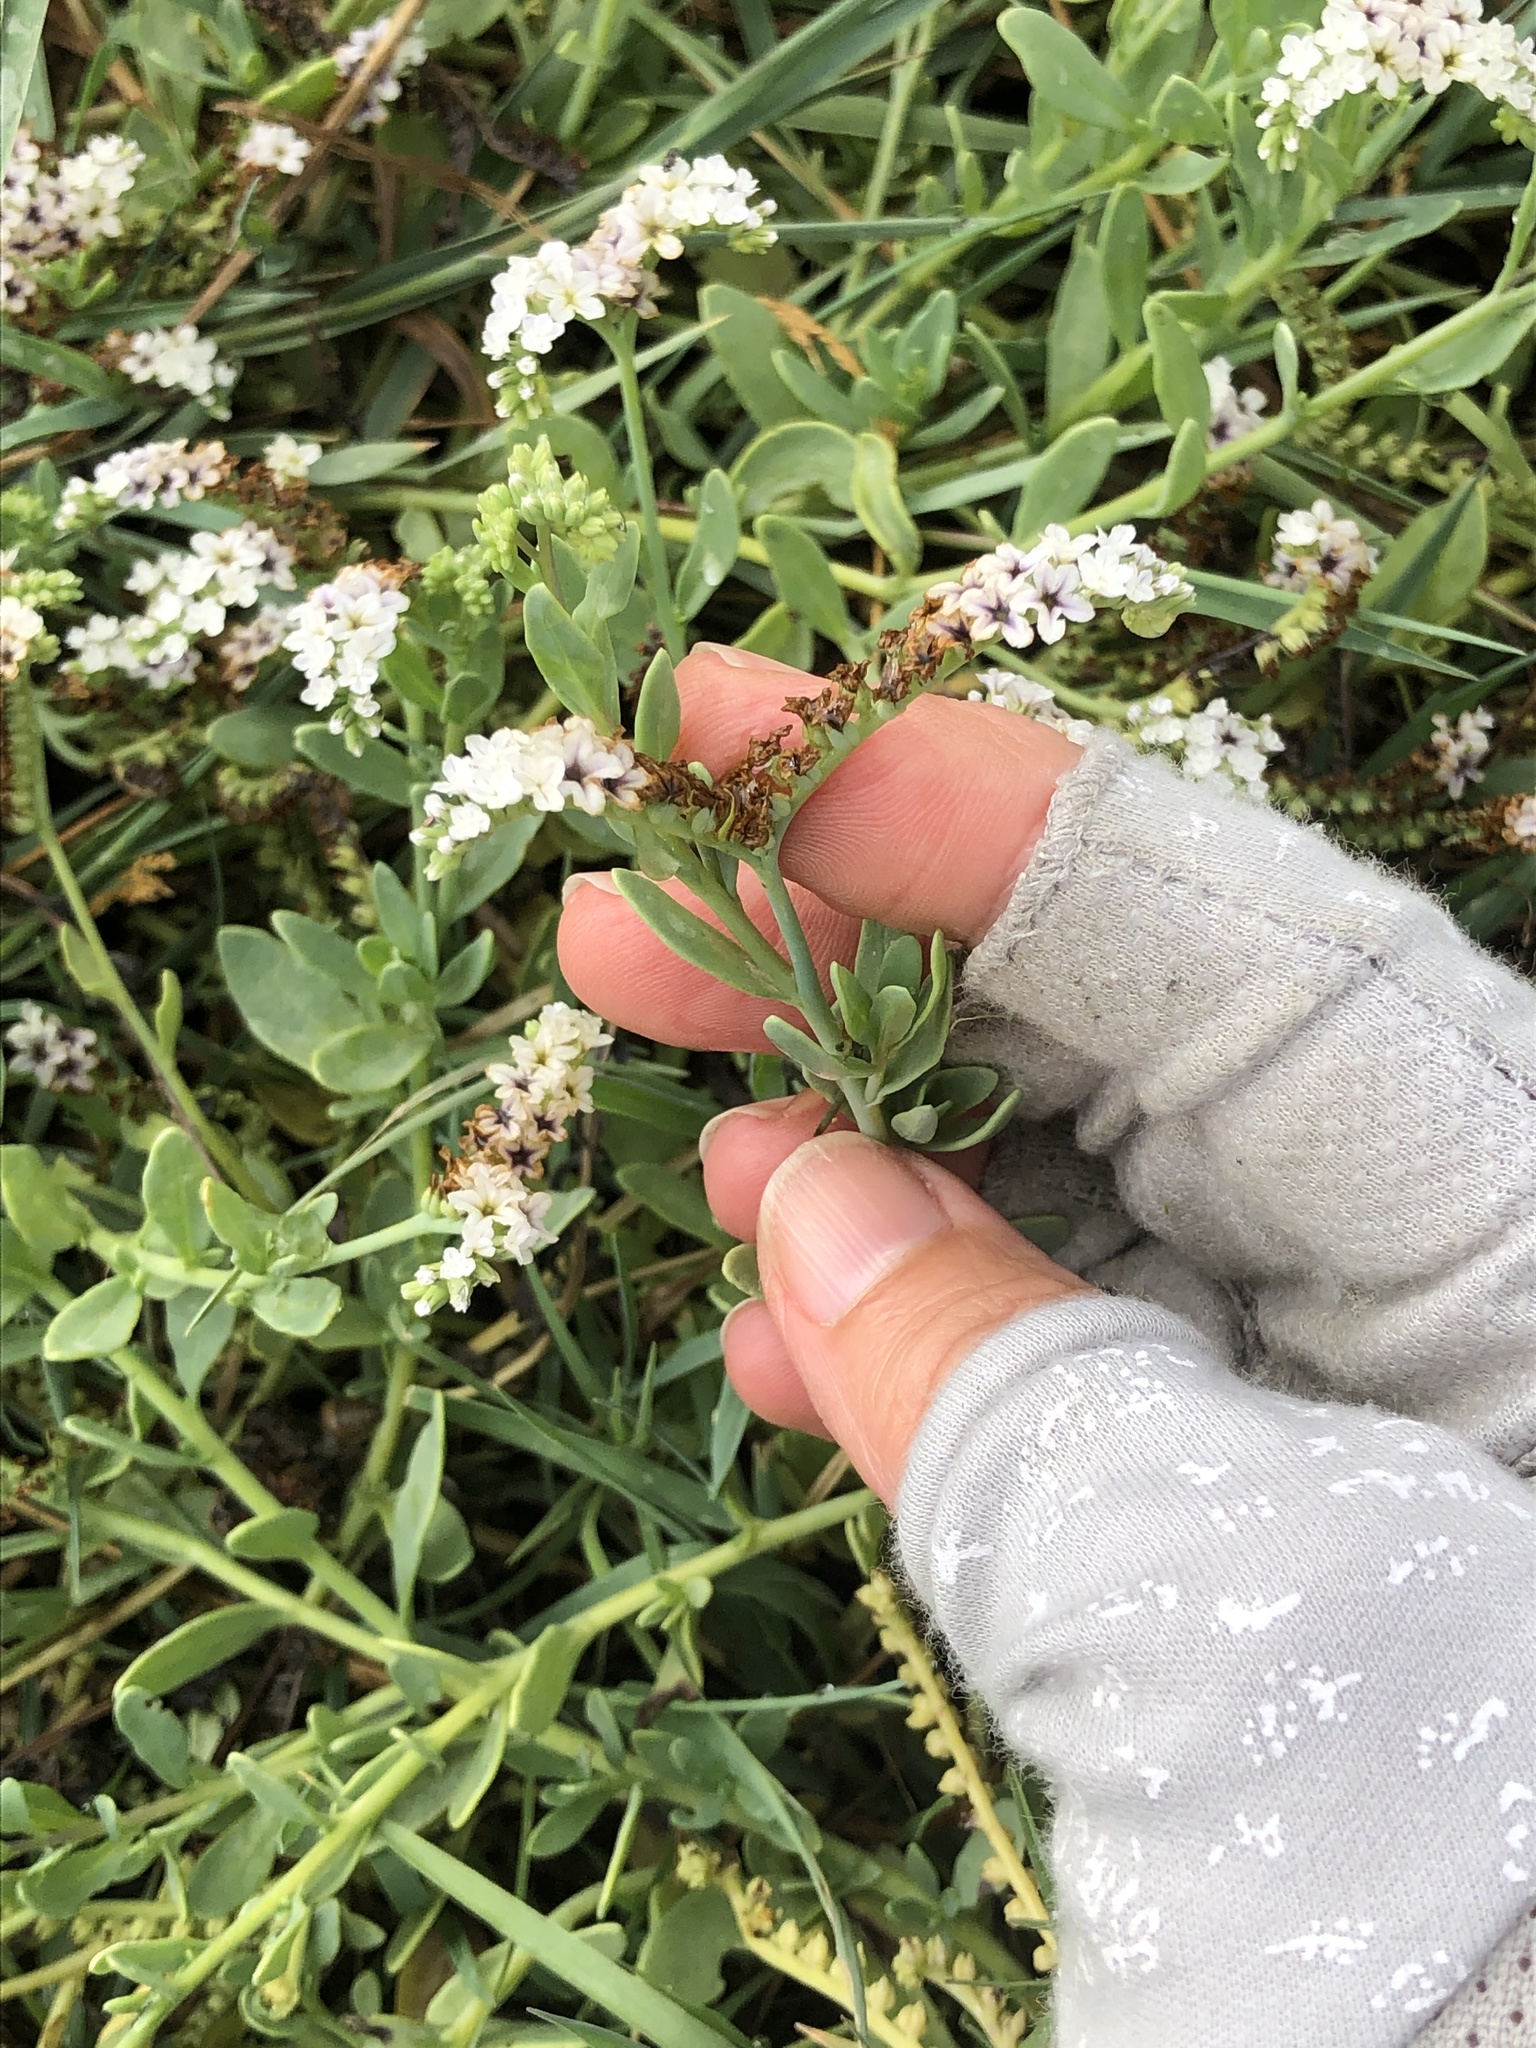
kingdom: Plantae
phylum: Tracheophyta
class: Magnoliopsida
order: Boraginales
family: Heliotropiaceae
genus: Heliotropium
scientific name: Heliotropium curassavicum
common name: Seaside heliotrope
